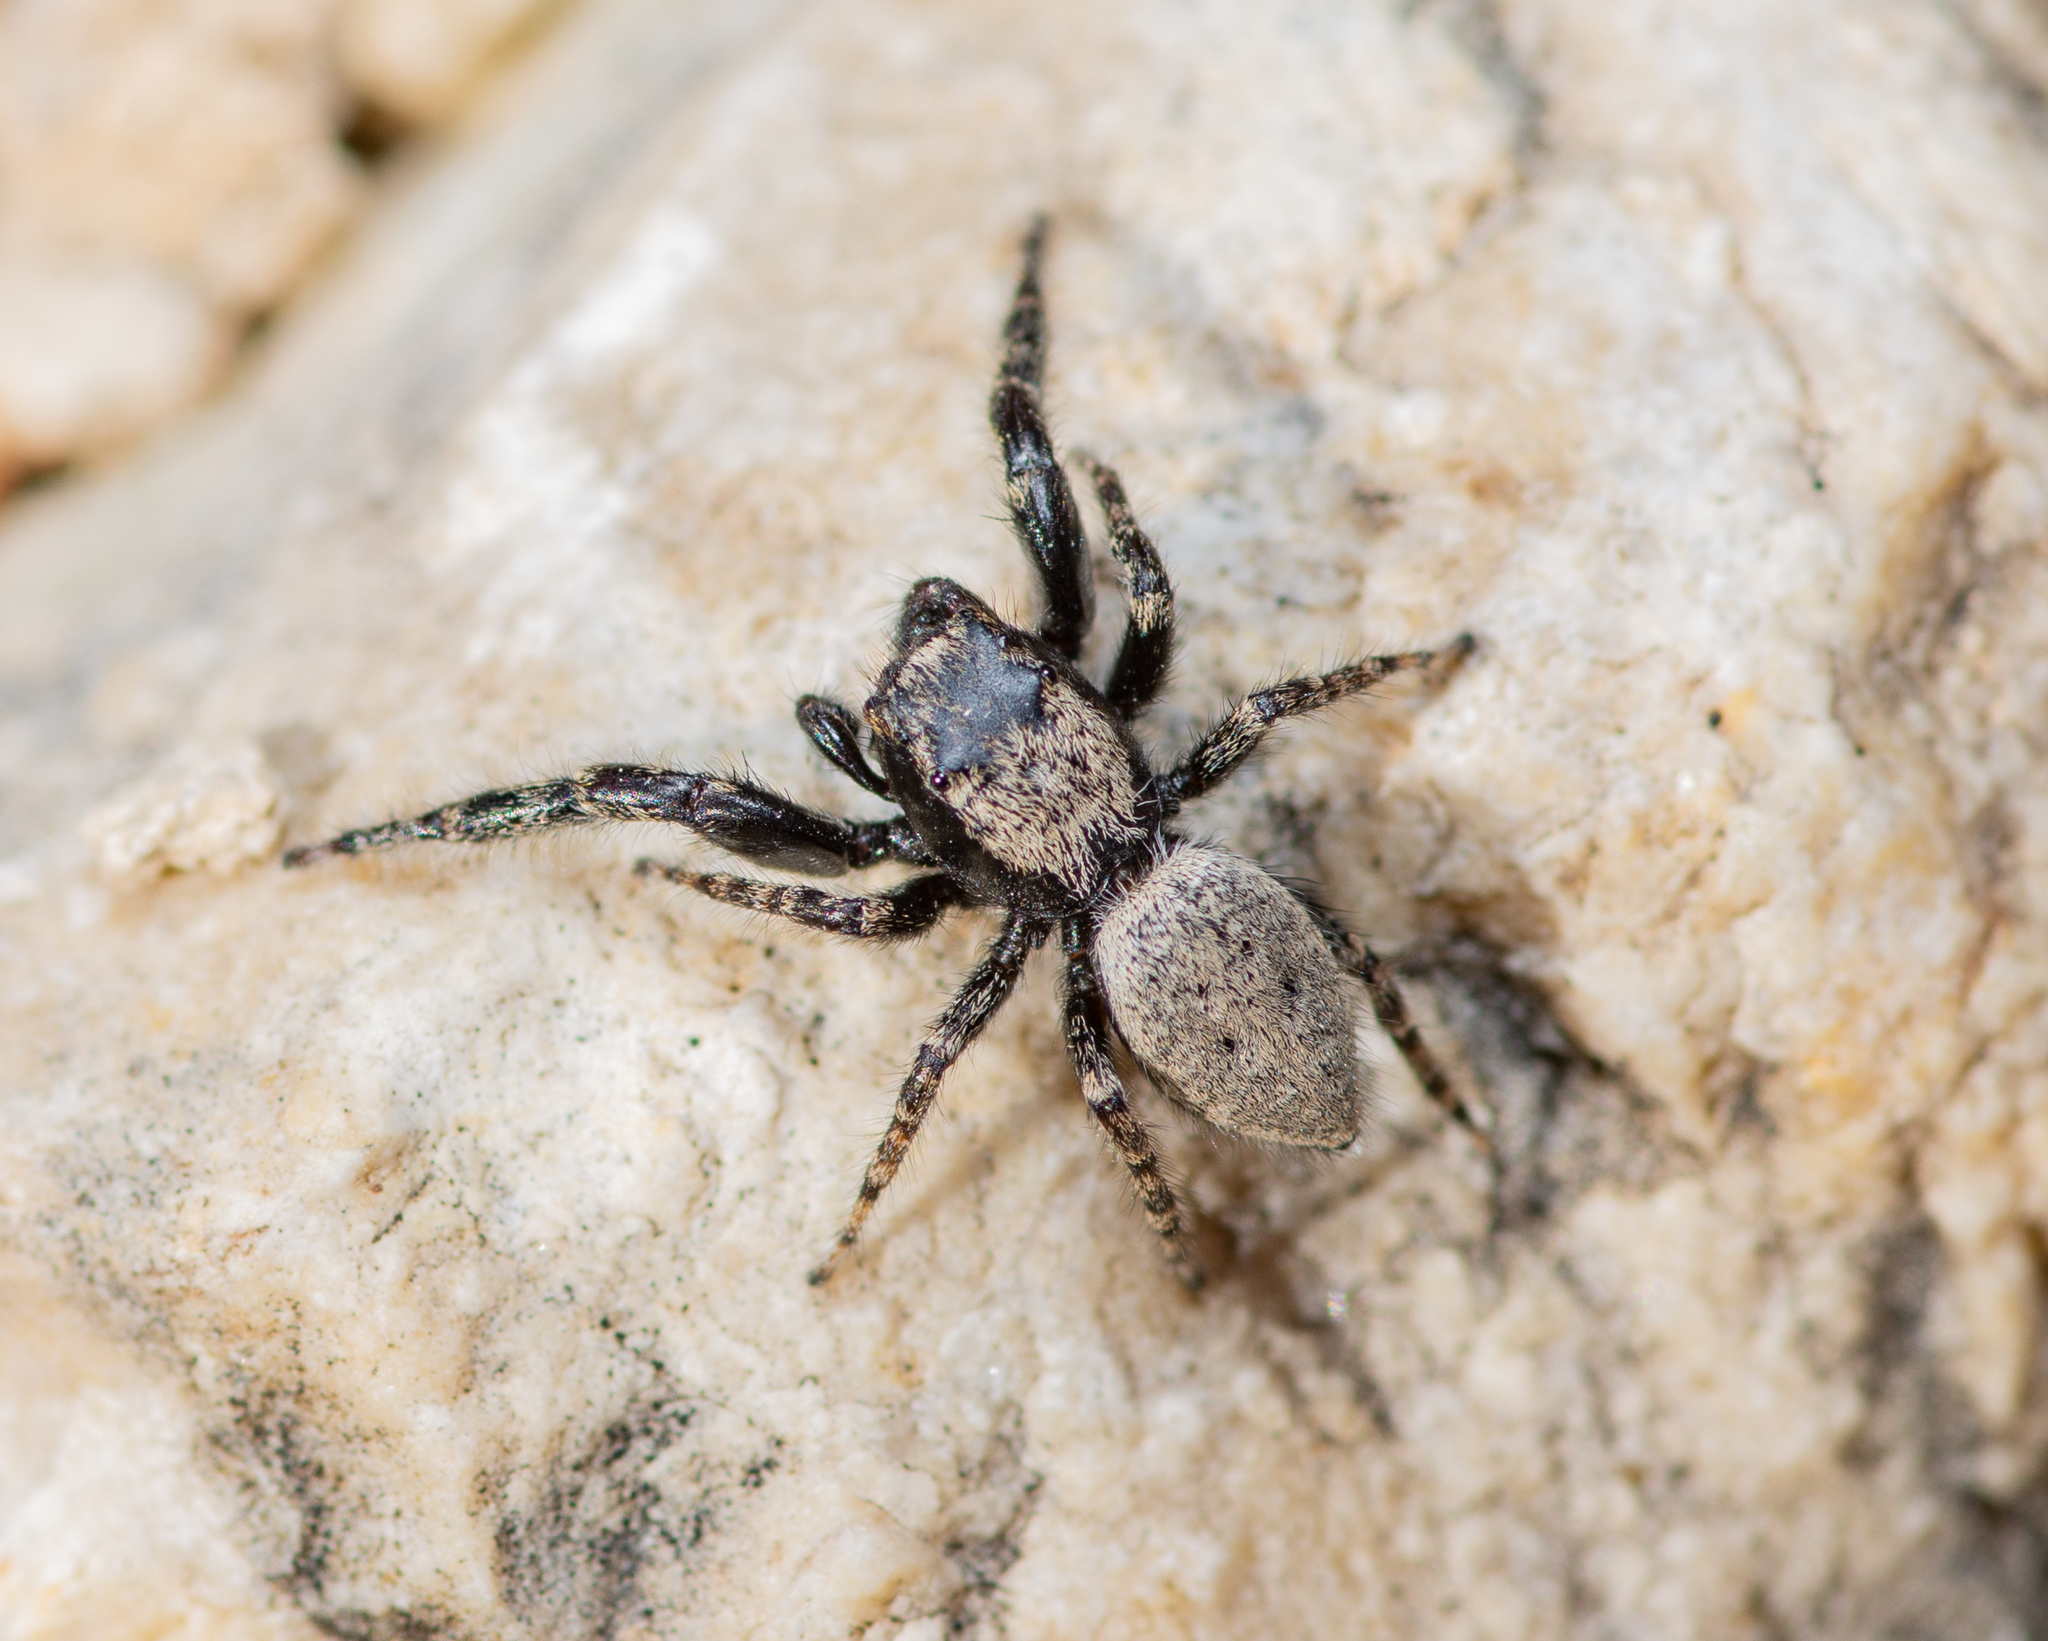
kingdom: Animalia
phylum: Arthropoda
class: Arachnida
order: Araneae
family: Salticidae
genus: Terralonus
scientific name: Terralonus fraternus
